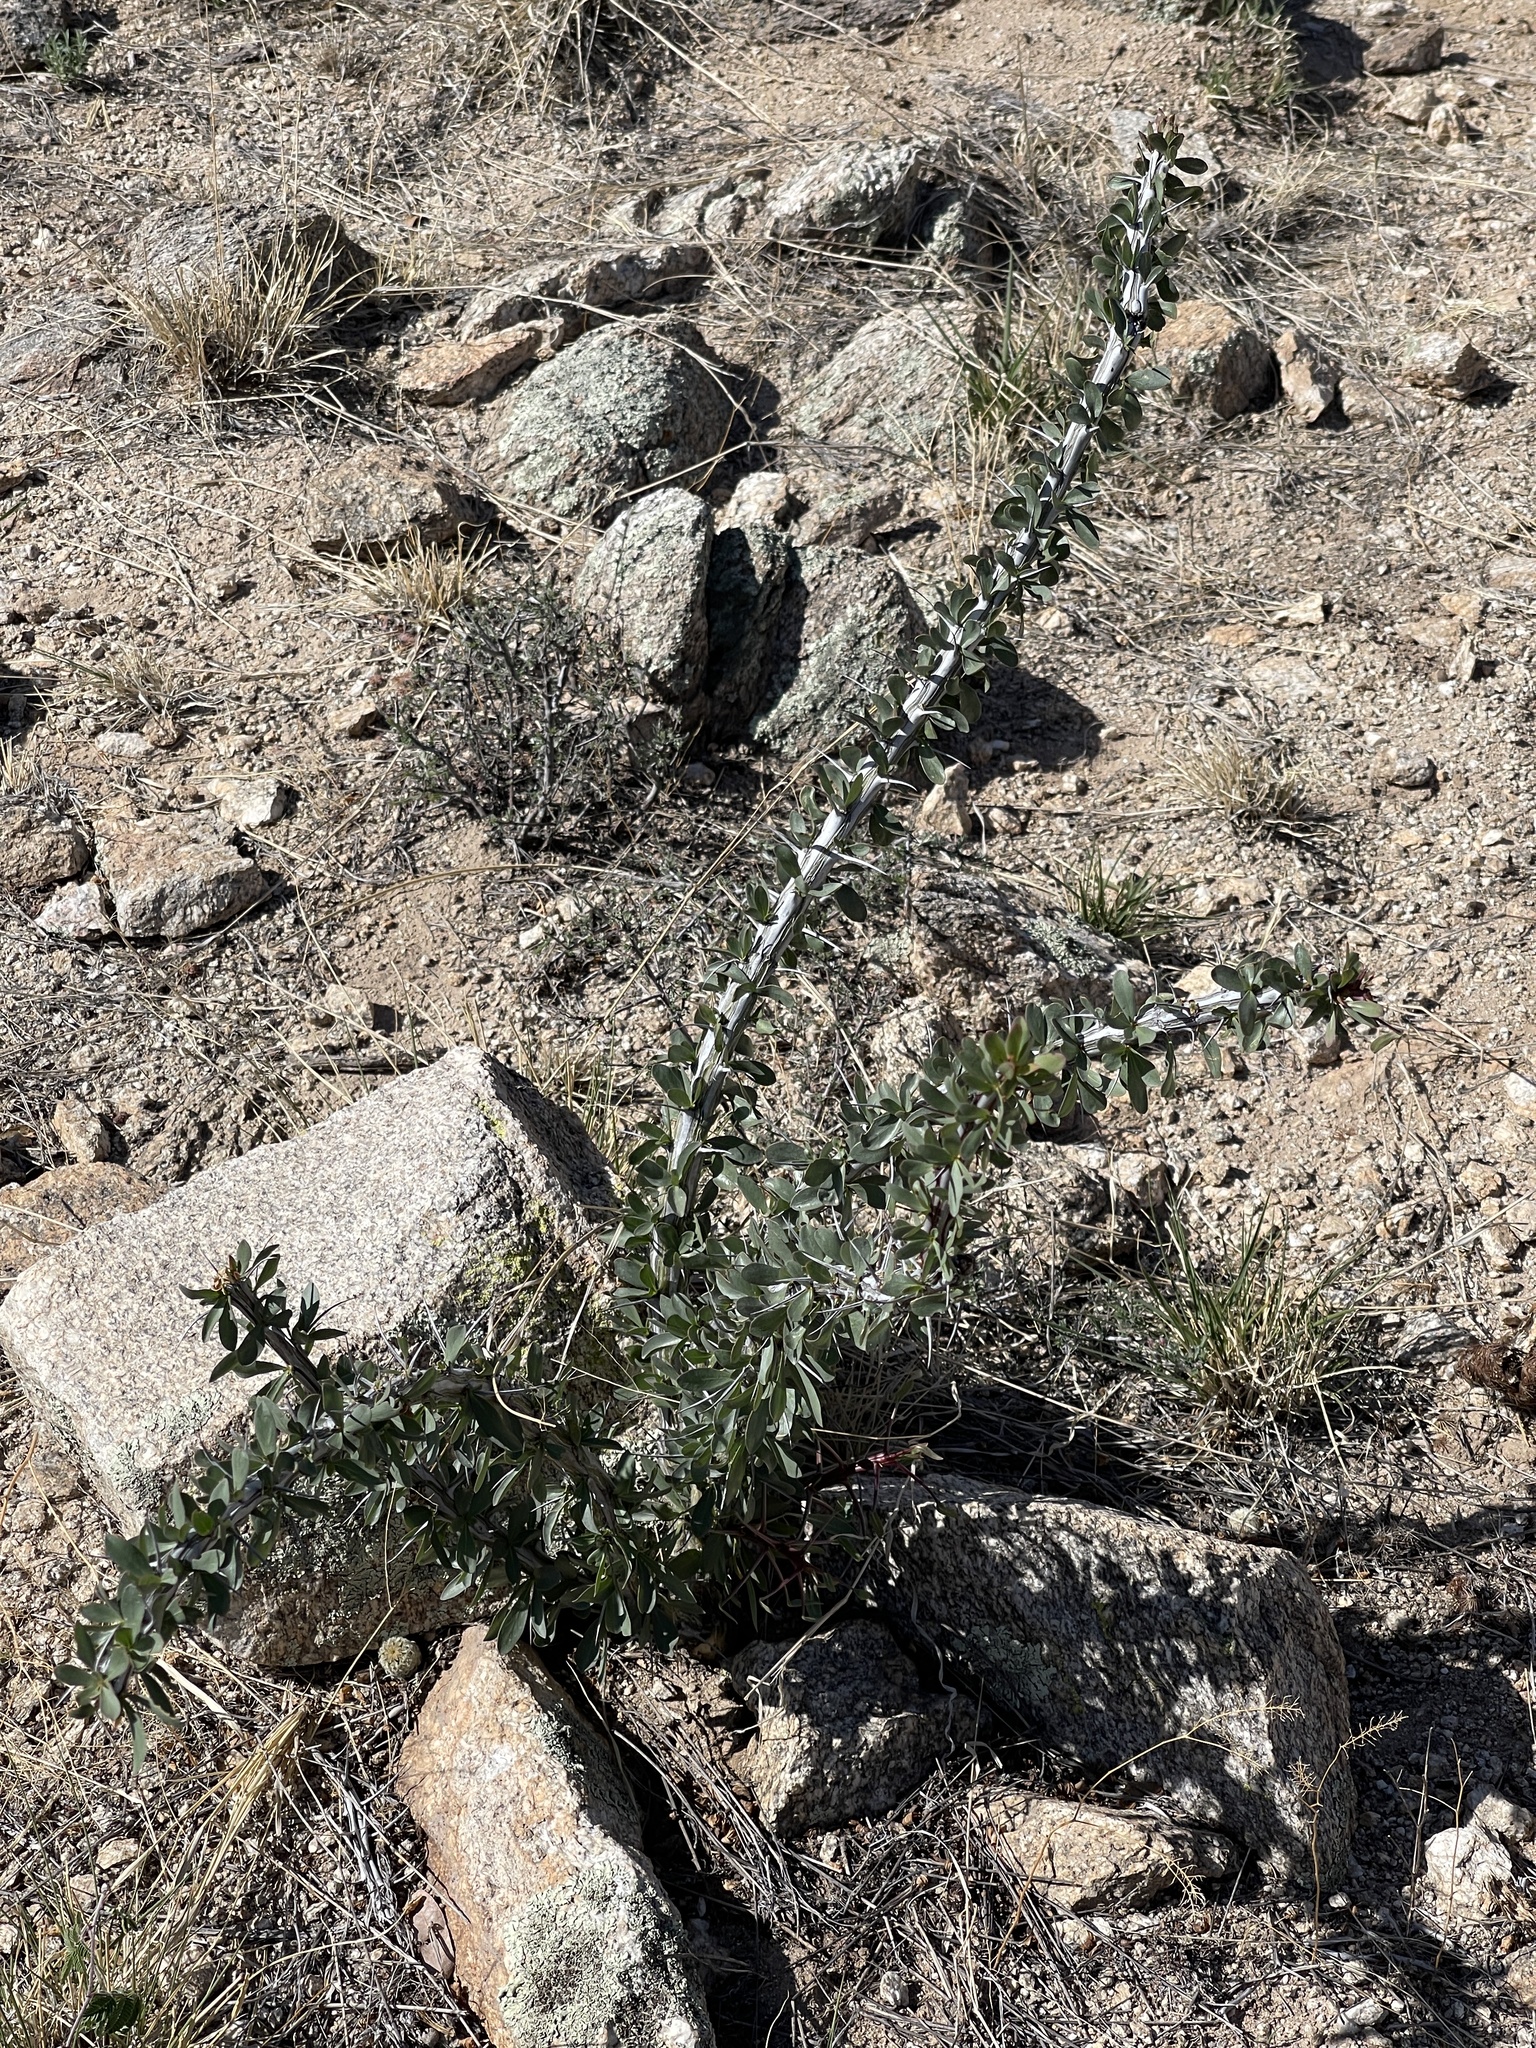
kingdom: Plantae
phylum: Tracheophyta
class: Magnoliopsida
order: Ericales
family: Fouquieriaceae
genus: Fouquieria
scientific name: Fouquieria splendens
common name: Vine-cactus
